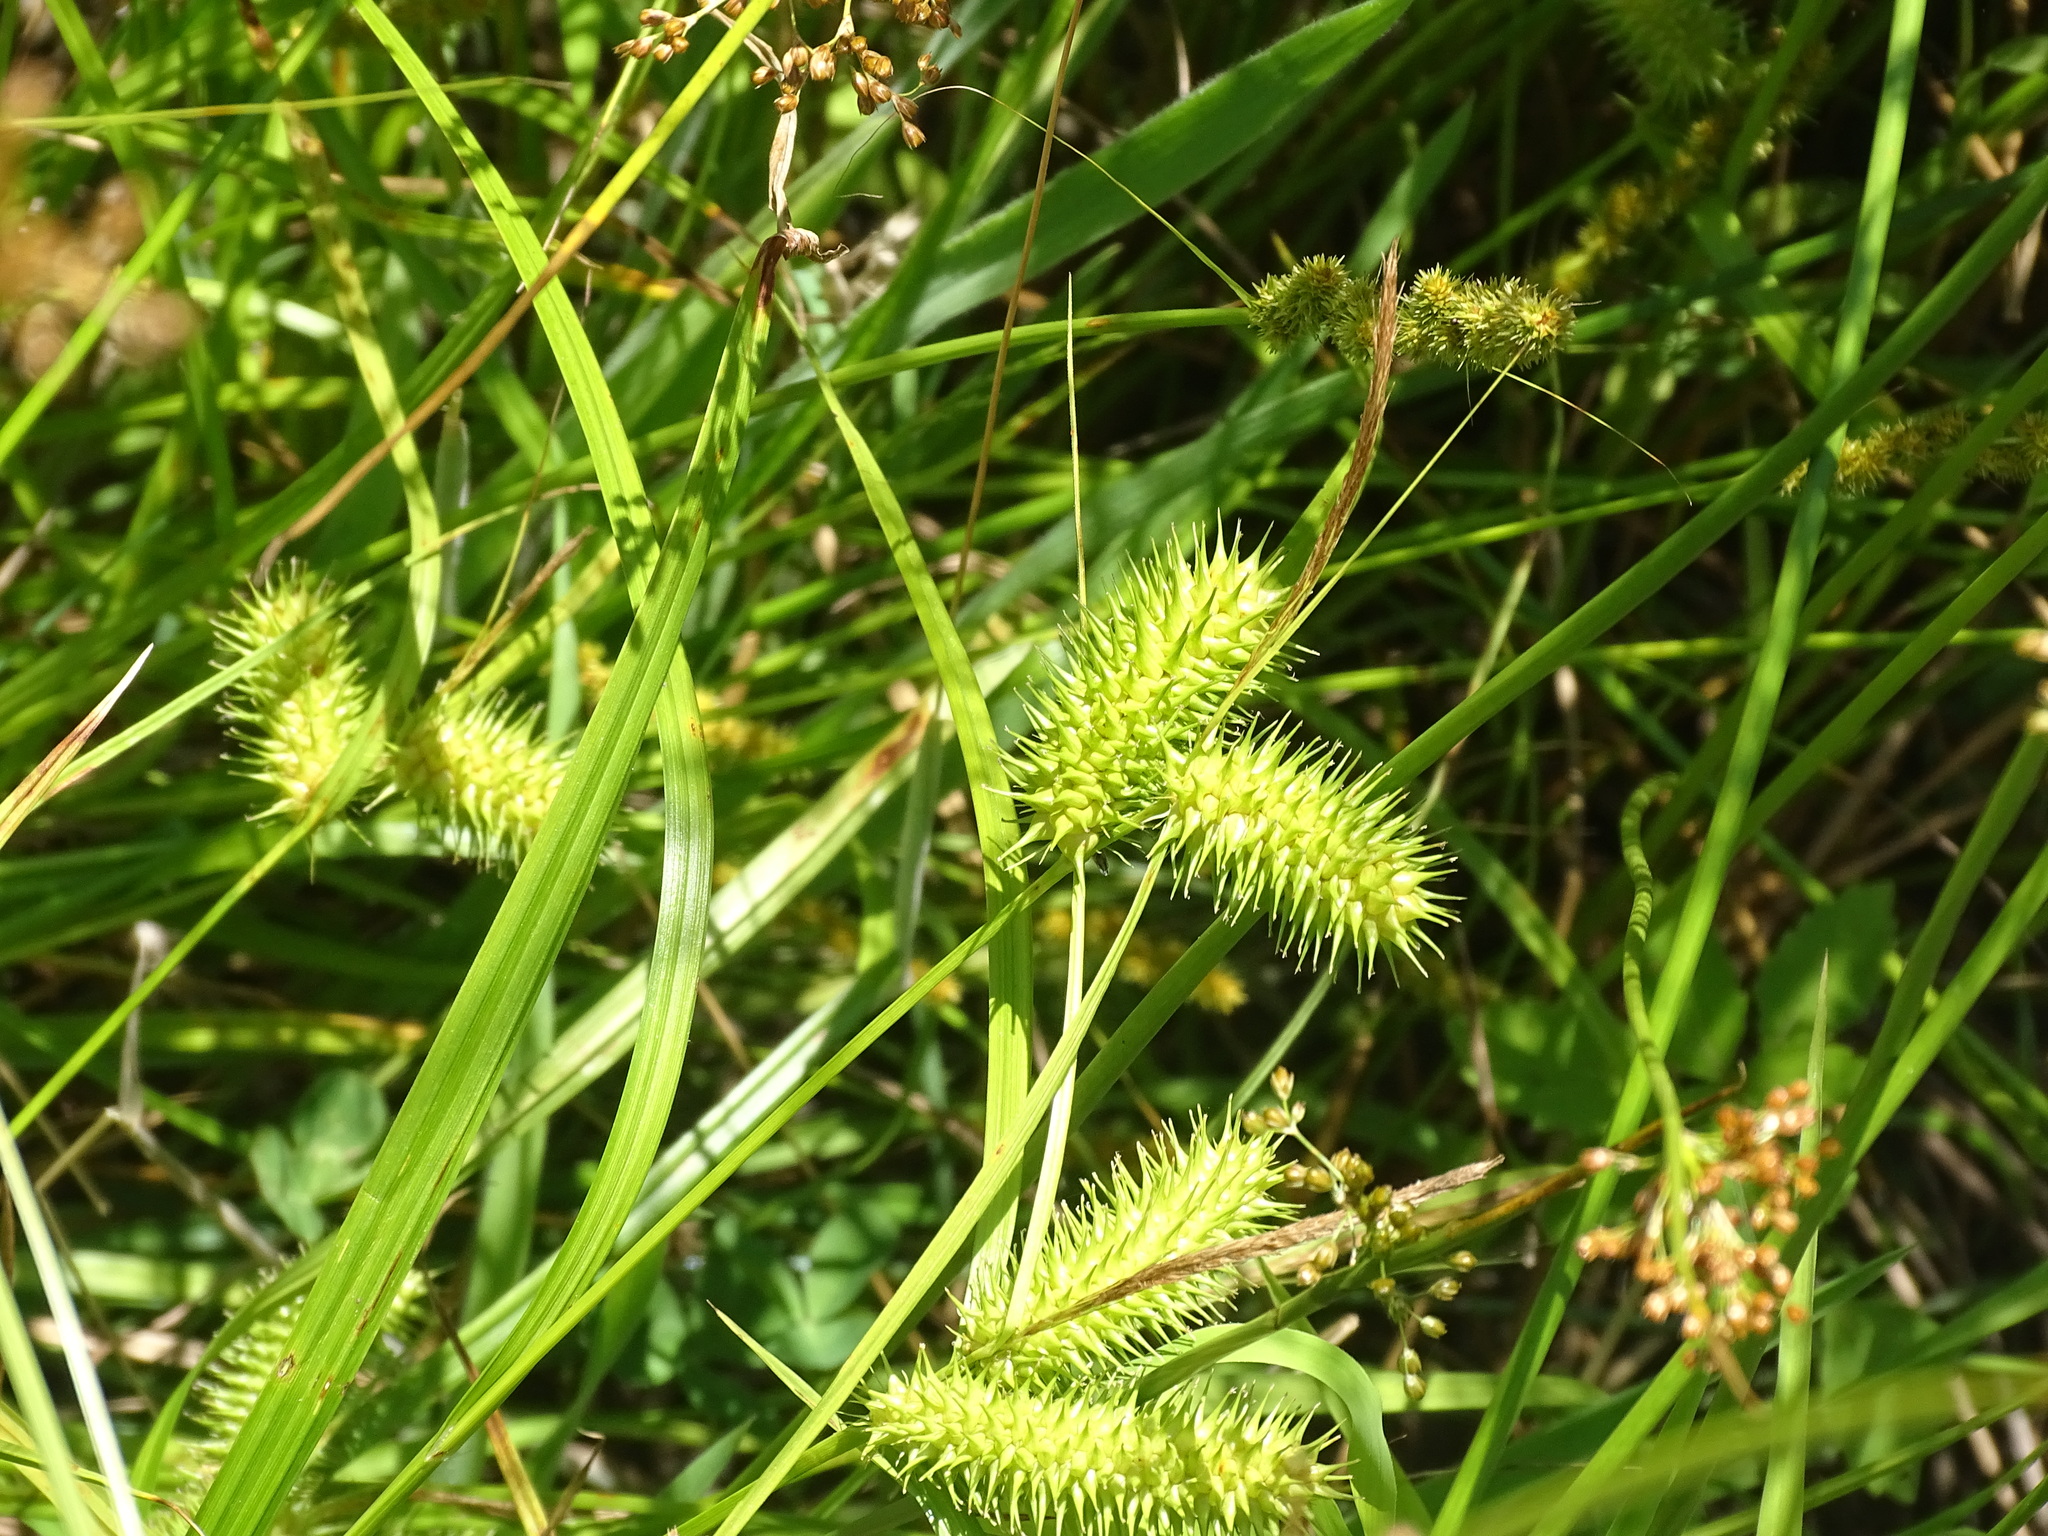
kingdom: Plantae
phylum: Tracheophyta
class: Liliopsida
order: Poales
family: Cyperaceae
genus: Carex
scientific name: Carex lurida
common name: Sallow sedge
